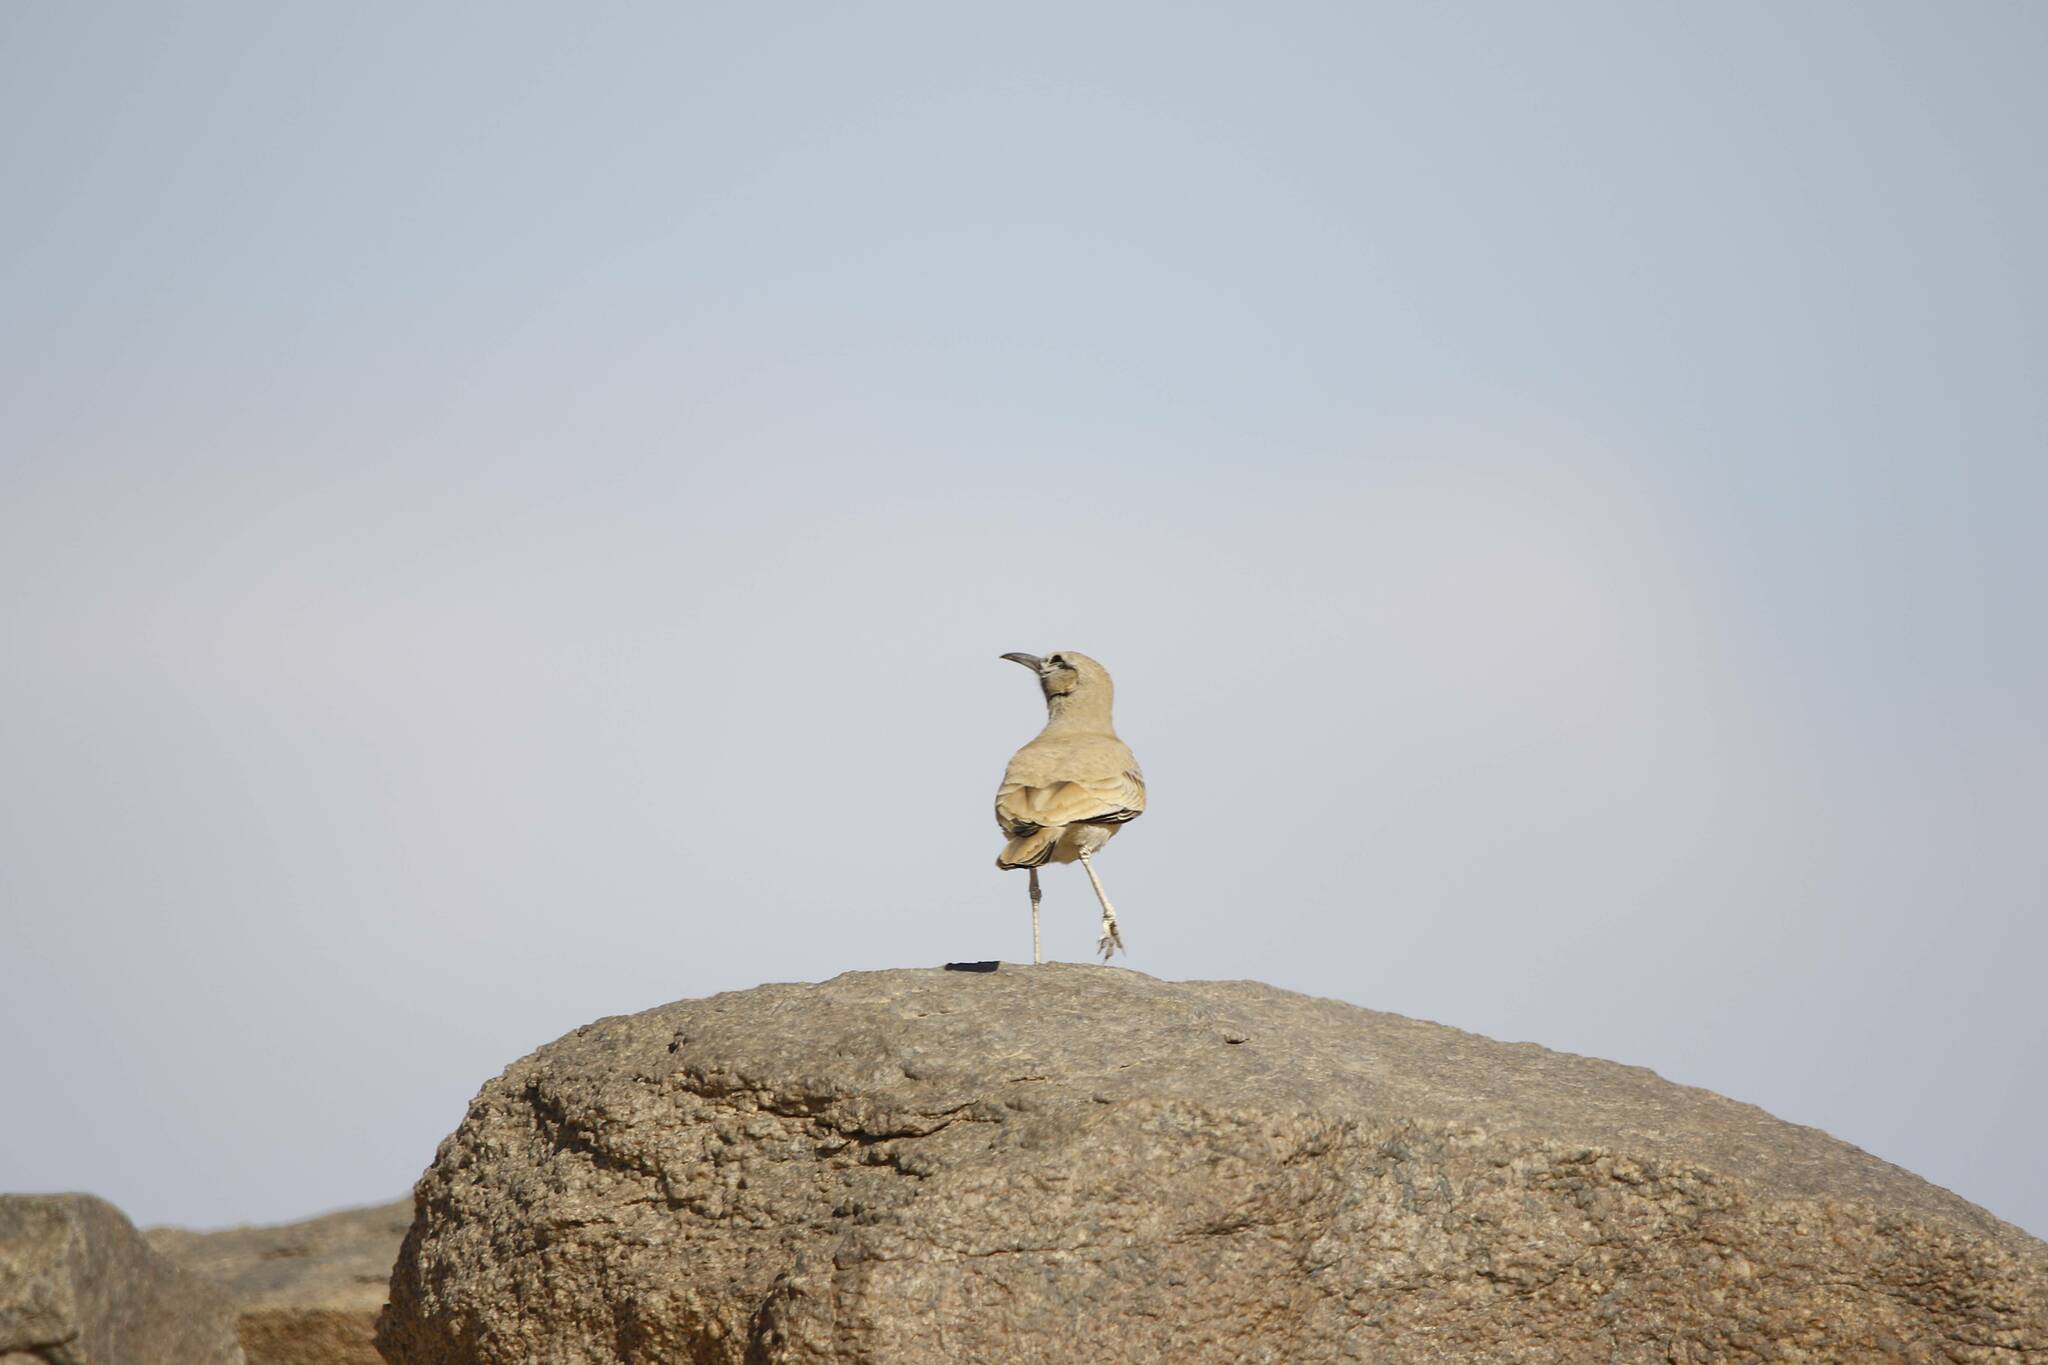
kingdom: Animalia
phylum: Chordata
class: Aves
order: Passeriformes
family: Alaudidae
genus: Alaemon
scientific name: Alaemon alaudipes
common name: Greater hoopoe-lark
